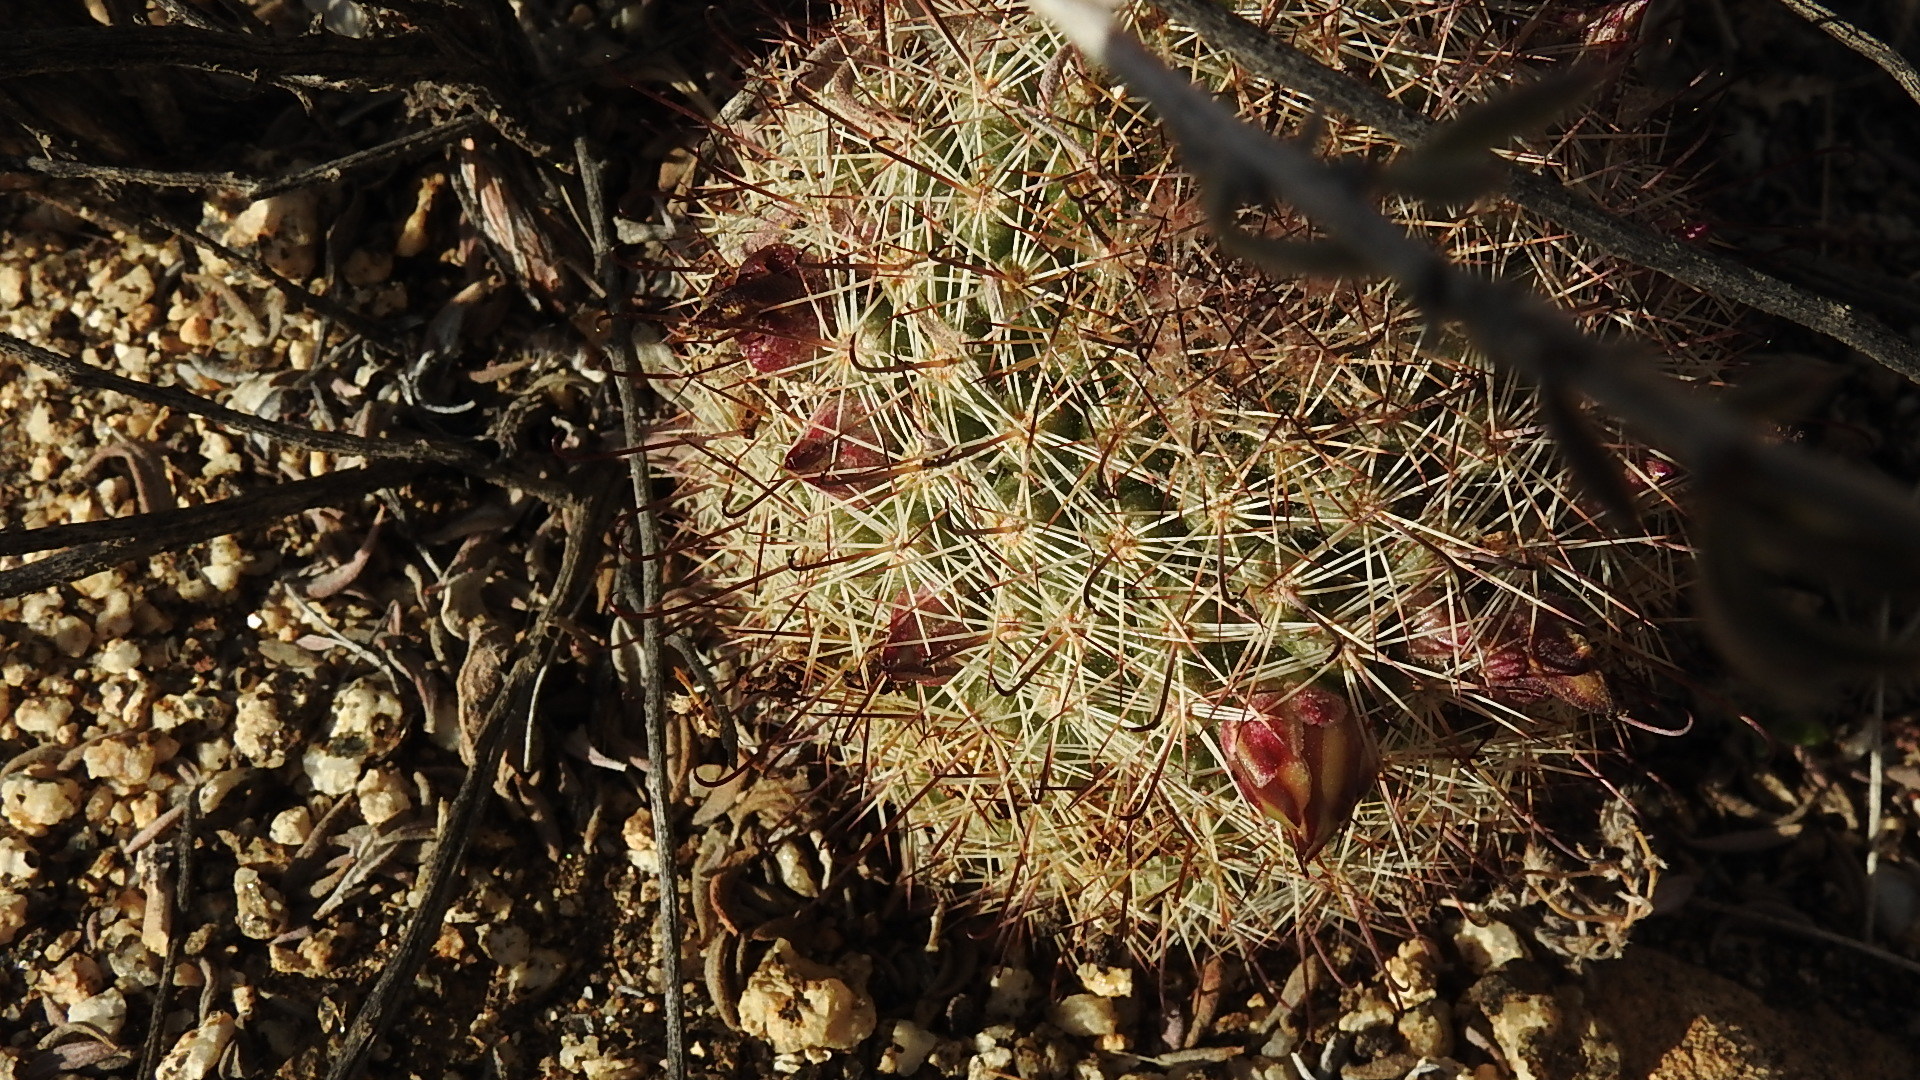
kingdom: Plantae
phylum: Tracheophyta
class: Magnoliopsida
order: Caryophyllales
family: Cactaceae
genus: Cochemiea
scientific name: Cochemiea dioica
